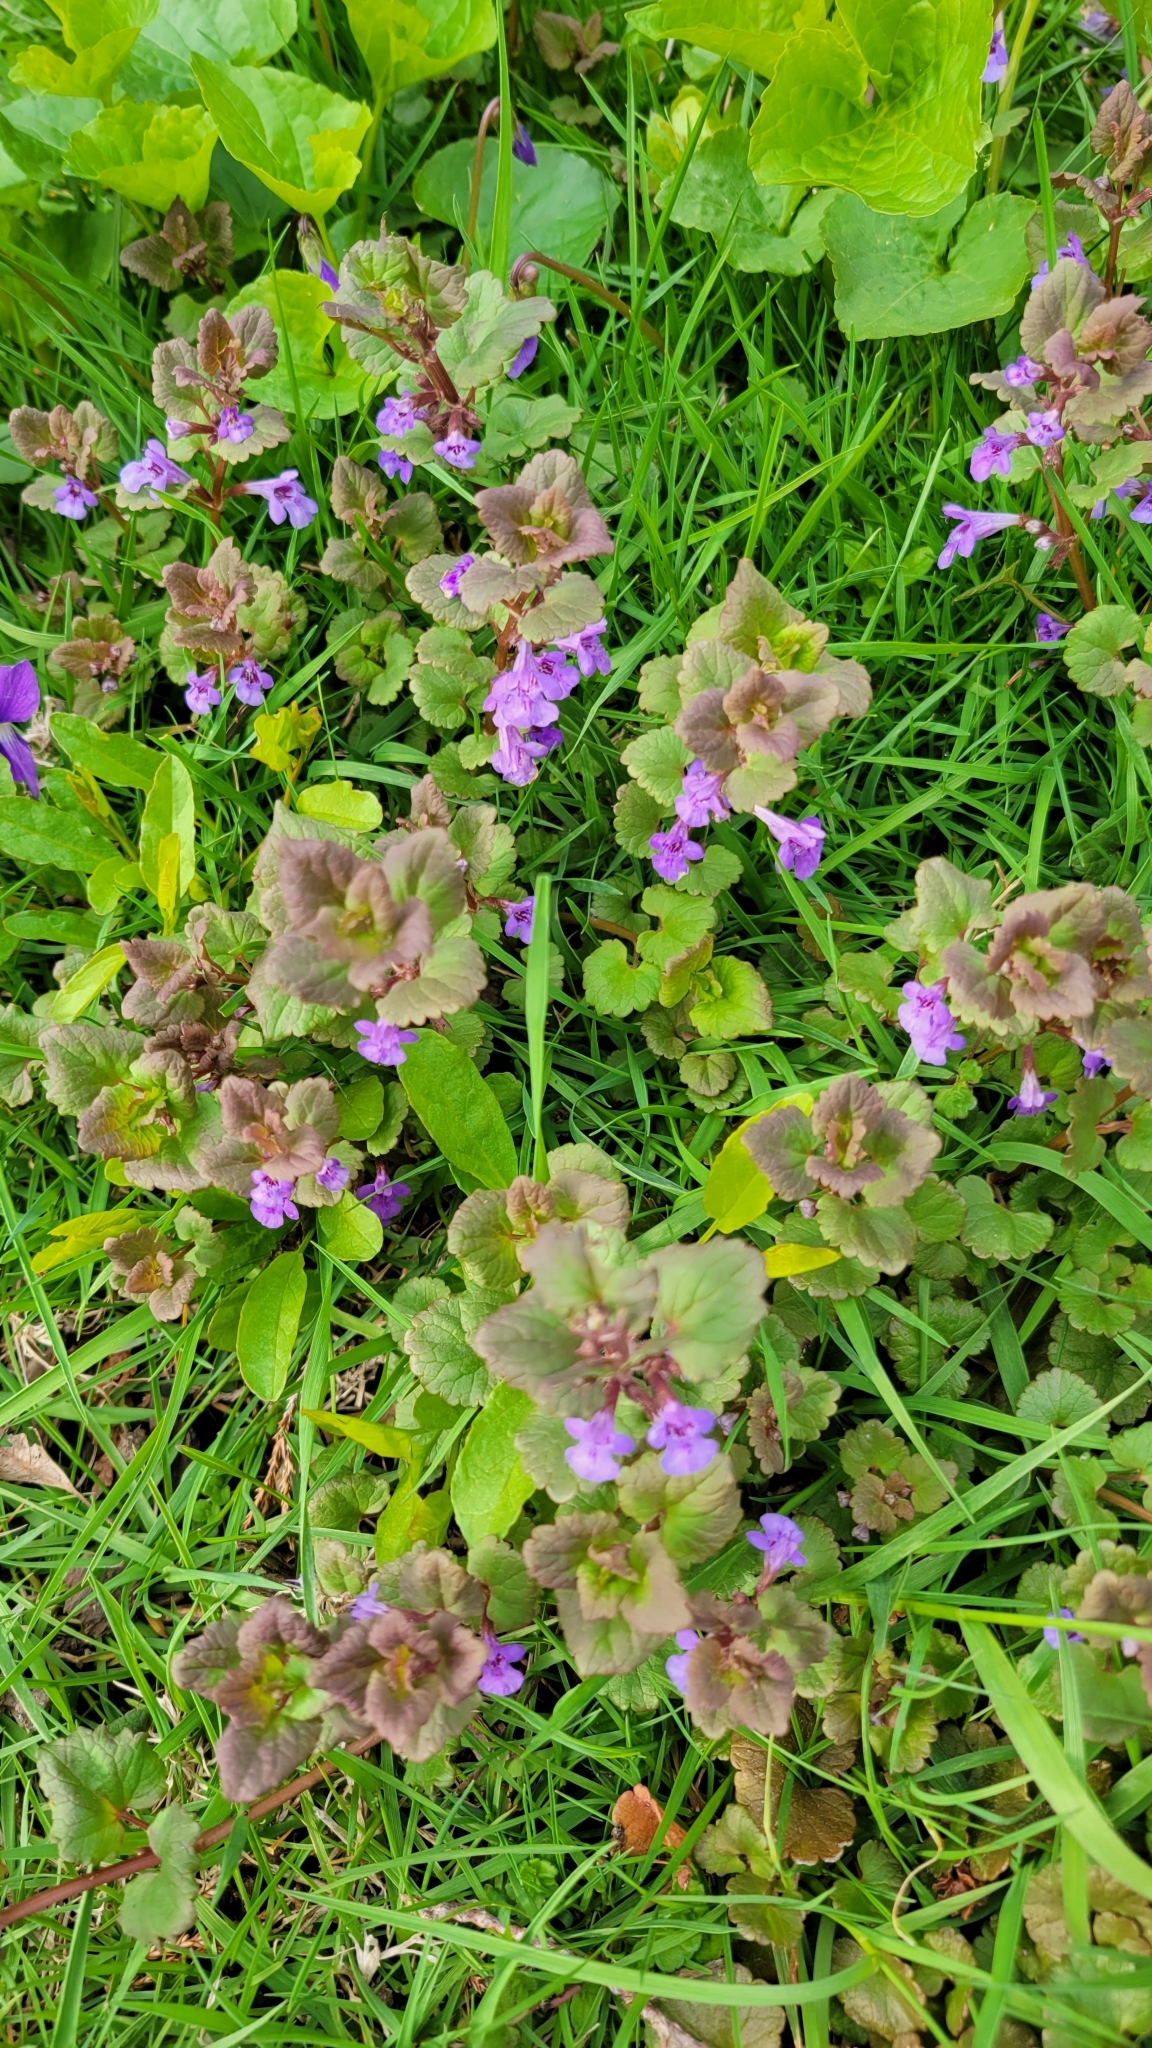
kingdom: Plantae
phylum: Tracheophyta
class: Magnoliopsida
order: Lamiales
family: Lamiaceae
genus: Glechoma
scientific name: Glechoma hederacea
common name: Ground ivy
